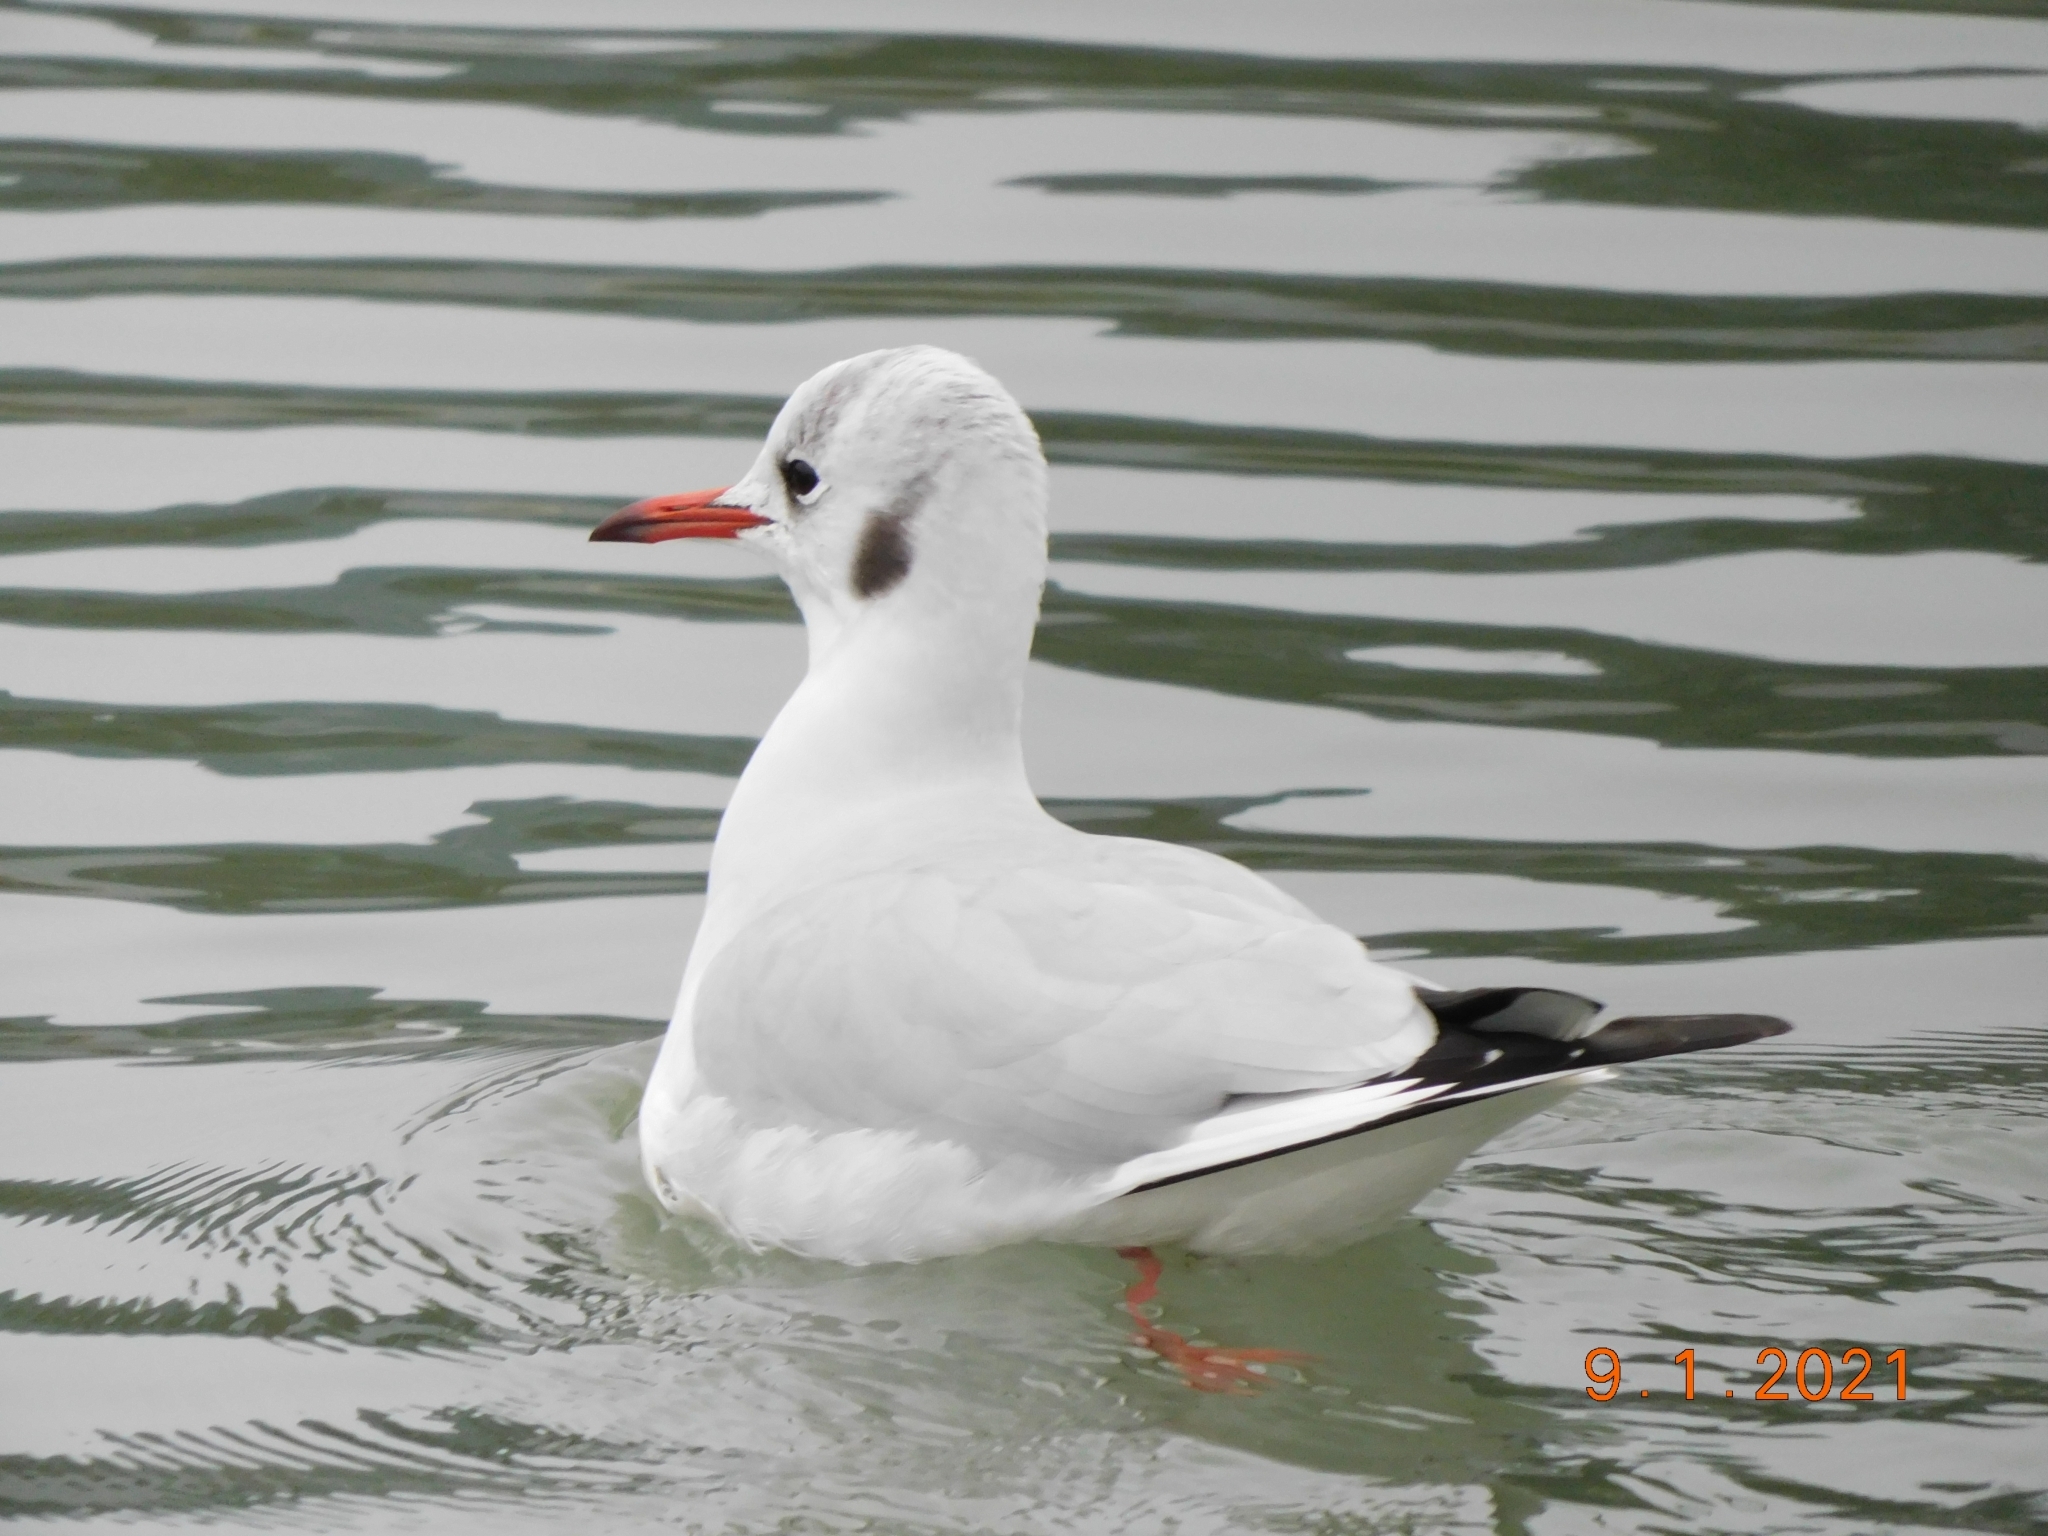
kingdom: Animalia
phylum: Chordata
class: Aves
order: Charadriiformes
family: Laridae
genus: Chroicocephalus
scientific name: Chroicocephalus ridibundus
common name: Black-headed gull
